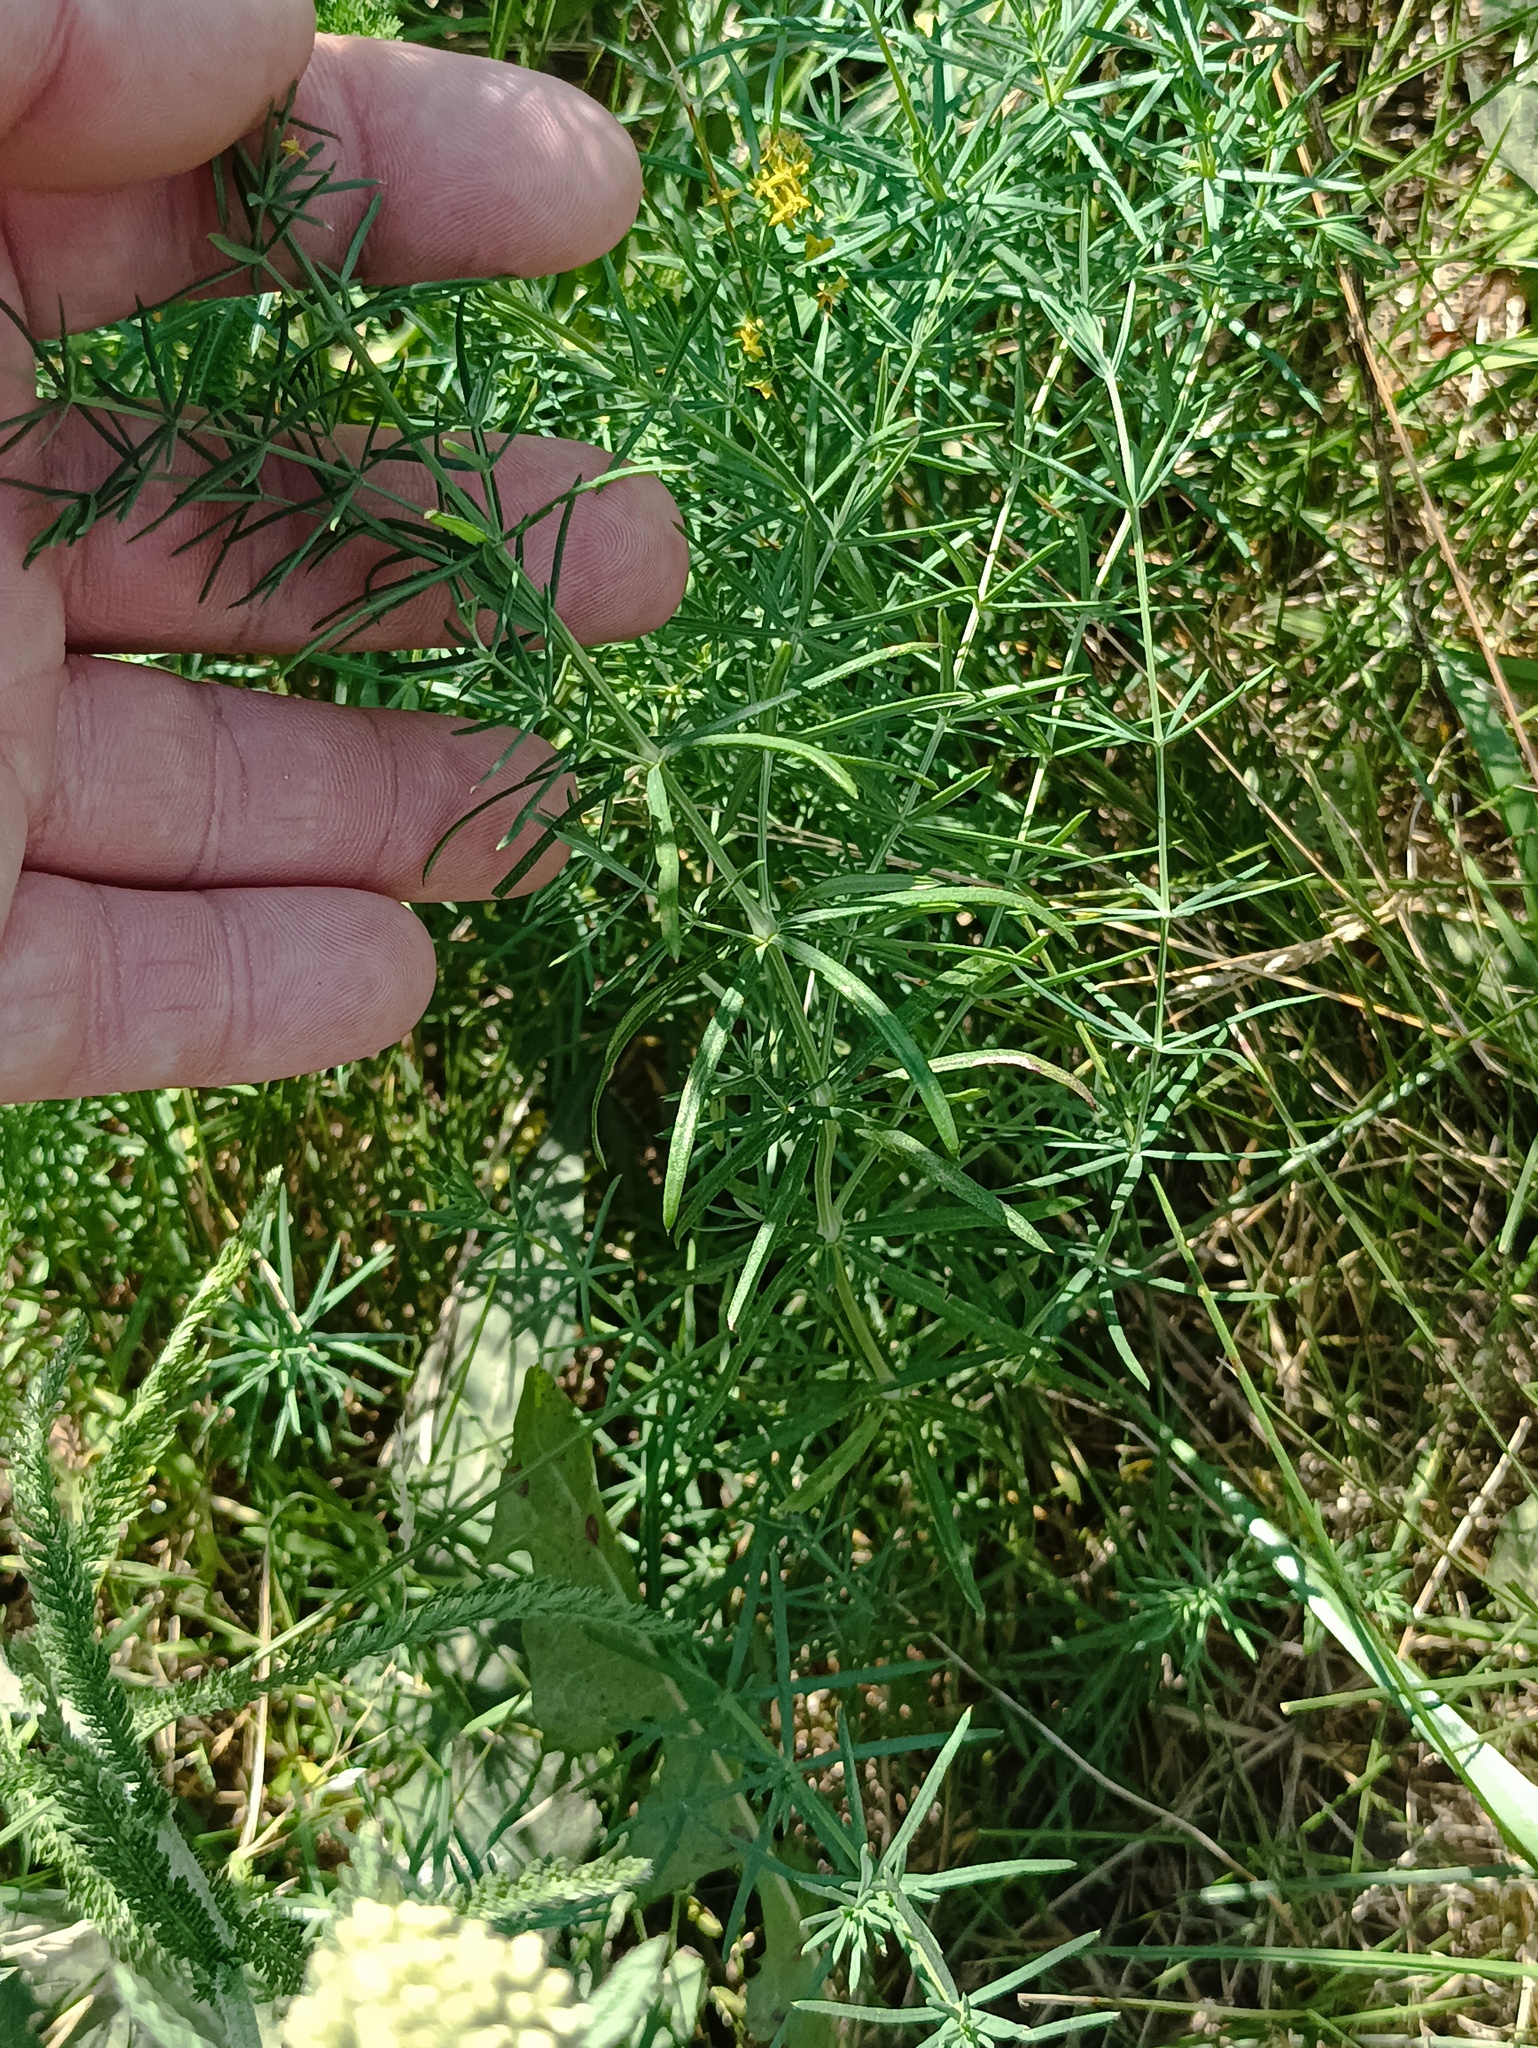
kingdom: Plantae
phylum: Tracheophyta
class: Magnoliopsida
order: Gentianales
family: Rubiaceae
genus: Galium
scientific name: Galium verum
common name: Lady's bedstraw
